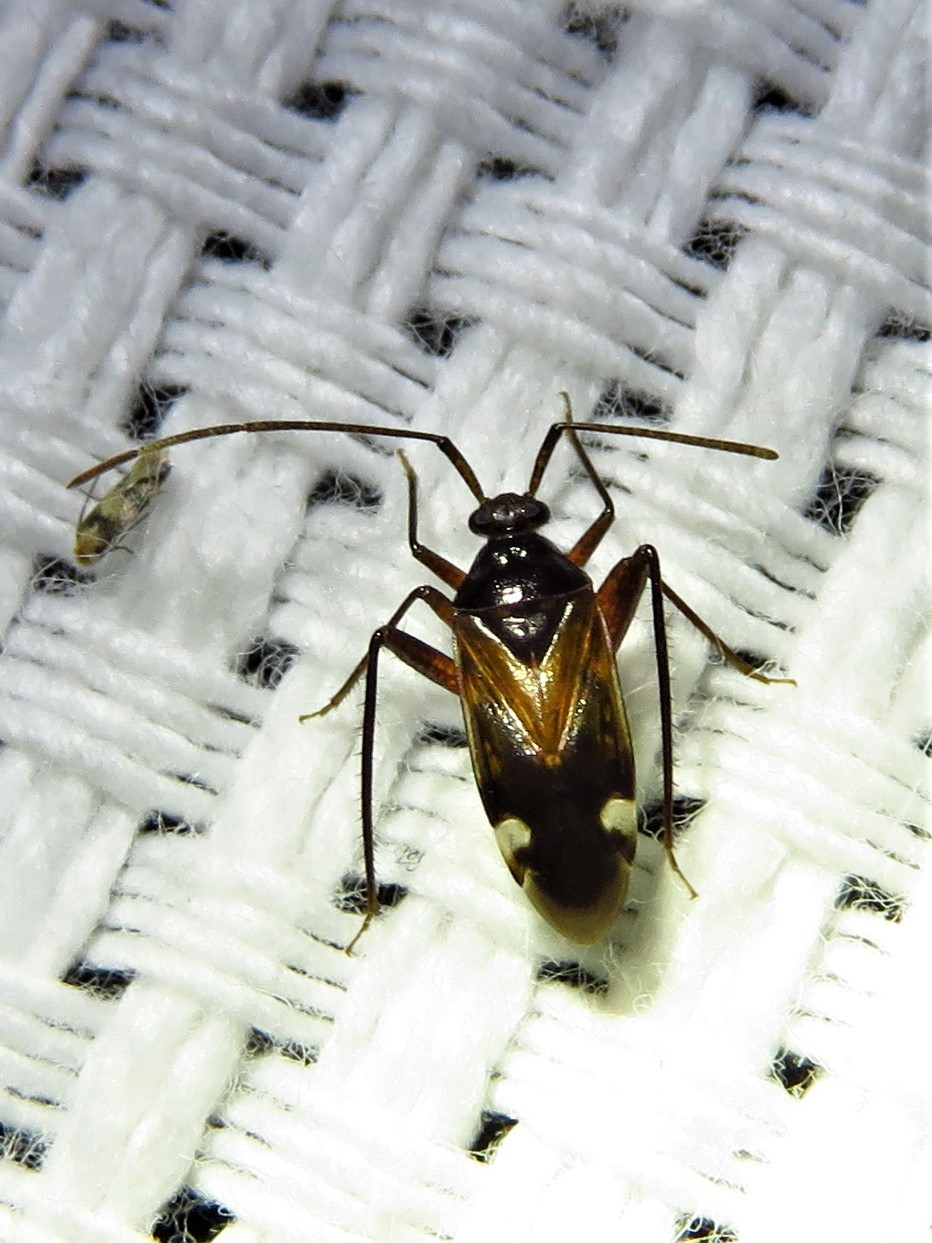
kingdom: Animalia
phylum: Arthropoda
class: Insecta
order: Hemiptera
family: Miridae
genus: Eustictus
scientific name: Eustictus albomaculatus
